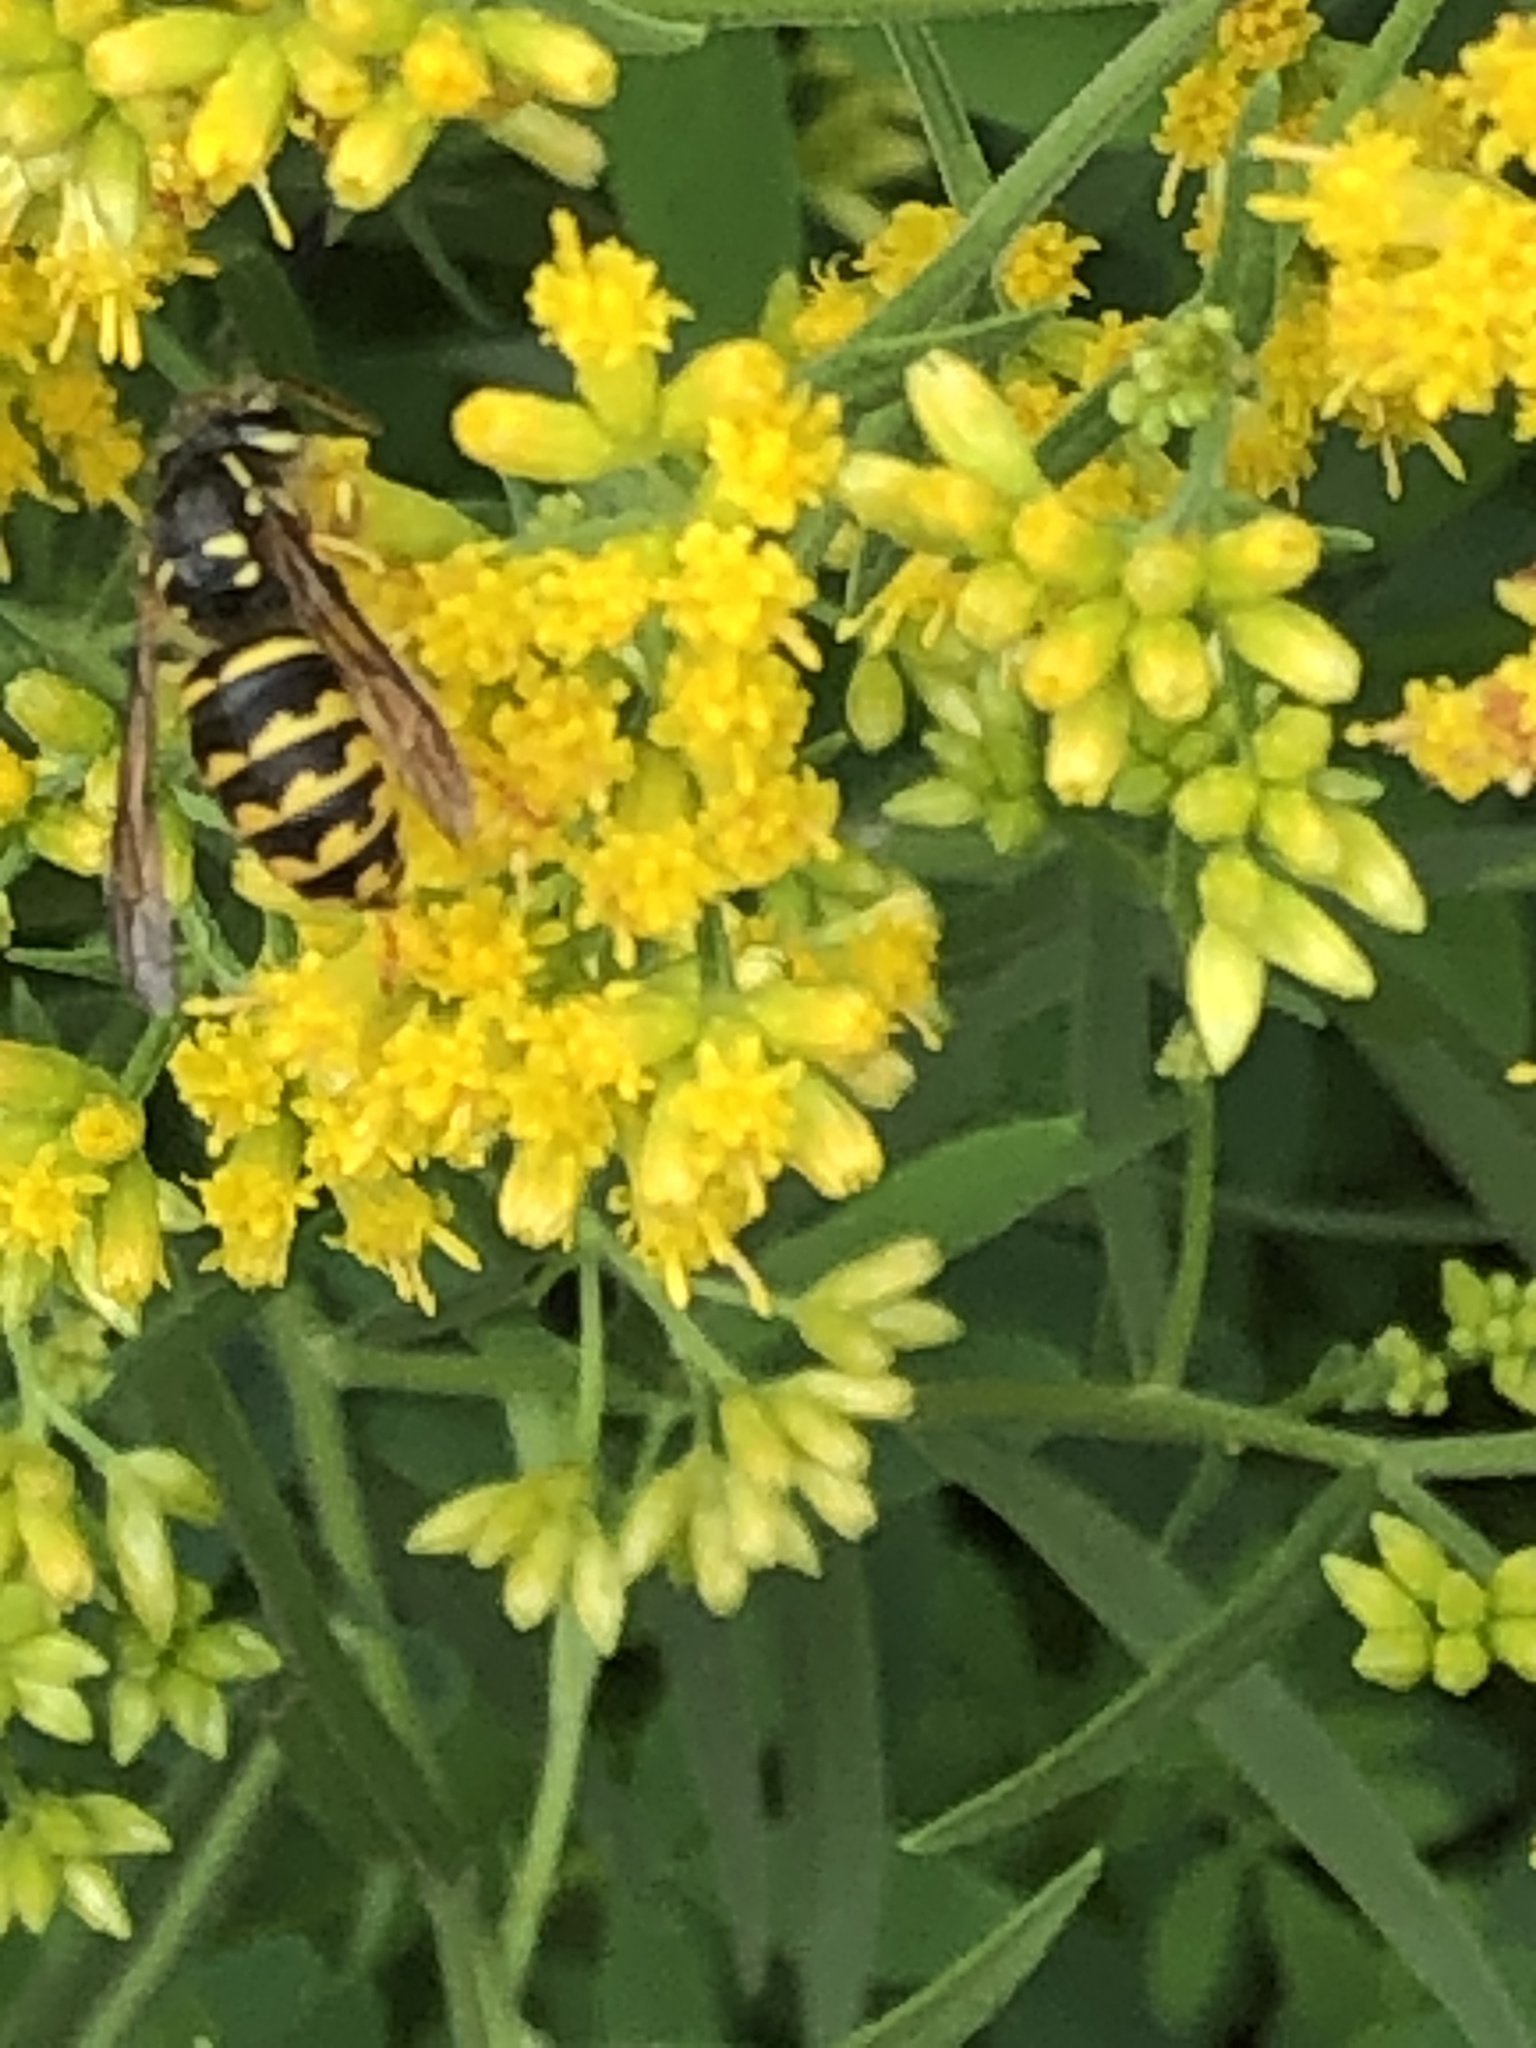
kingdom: Animalia
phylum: Arthropoda
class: Insecta
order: Hymenoptera
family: Vespidae
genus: Dolichovespula
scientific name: Dolichovespula arenaria
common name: Aerial yellowjacket
